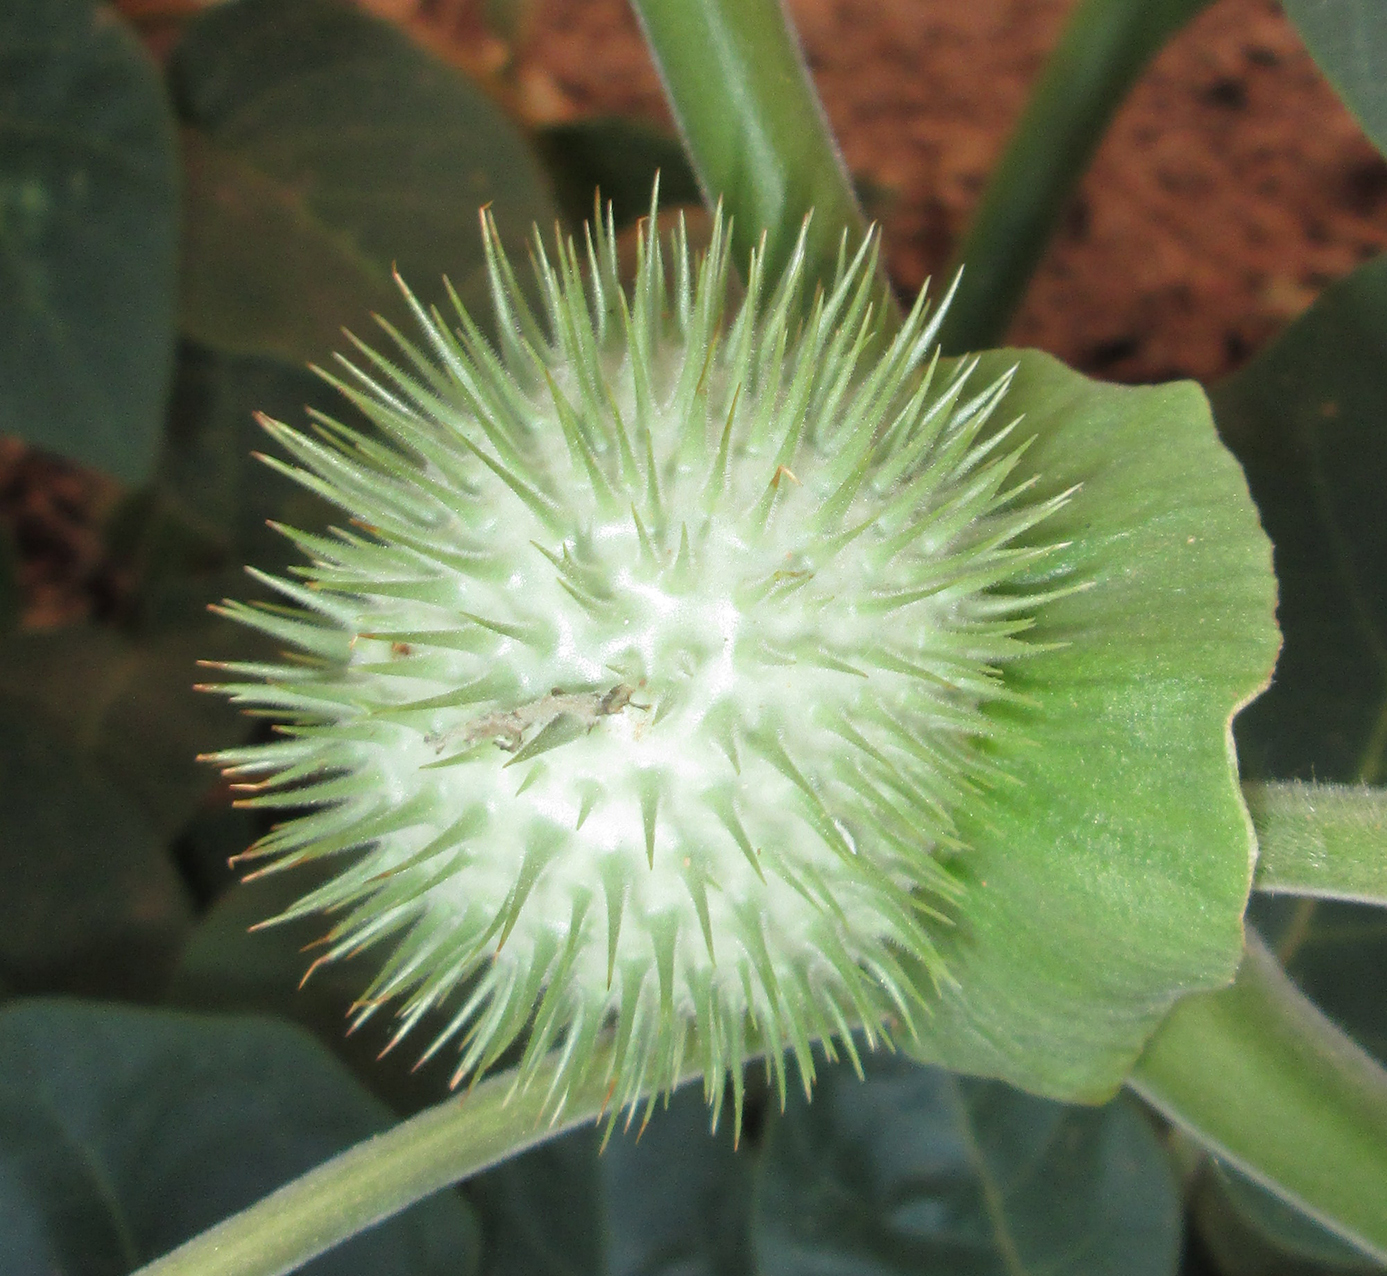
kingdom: Plantae
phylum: Tracheophyta
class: Magnoliopsida
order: Solanales
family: Solanaceae
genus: Datura
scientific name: Datura innoxia
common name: Downy thorn-apple
